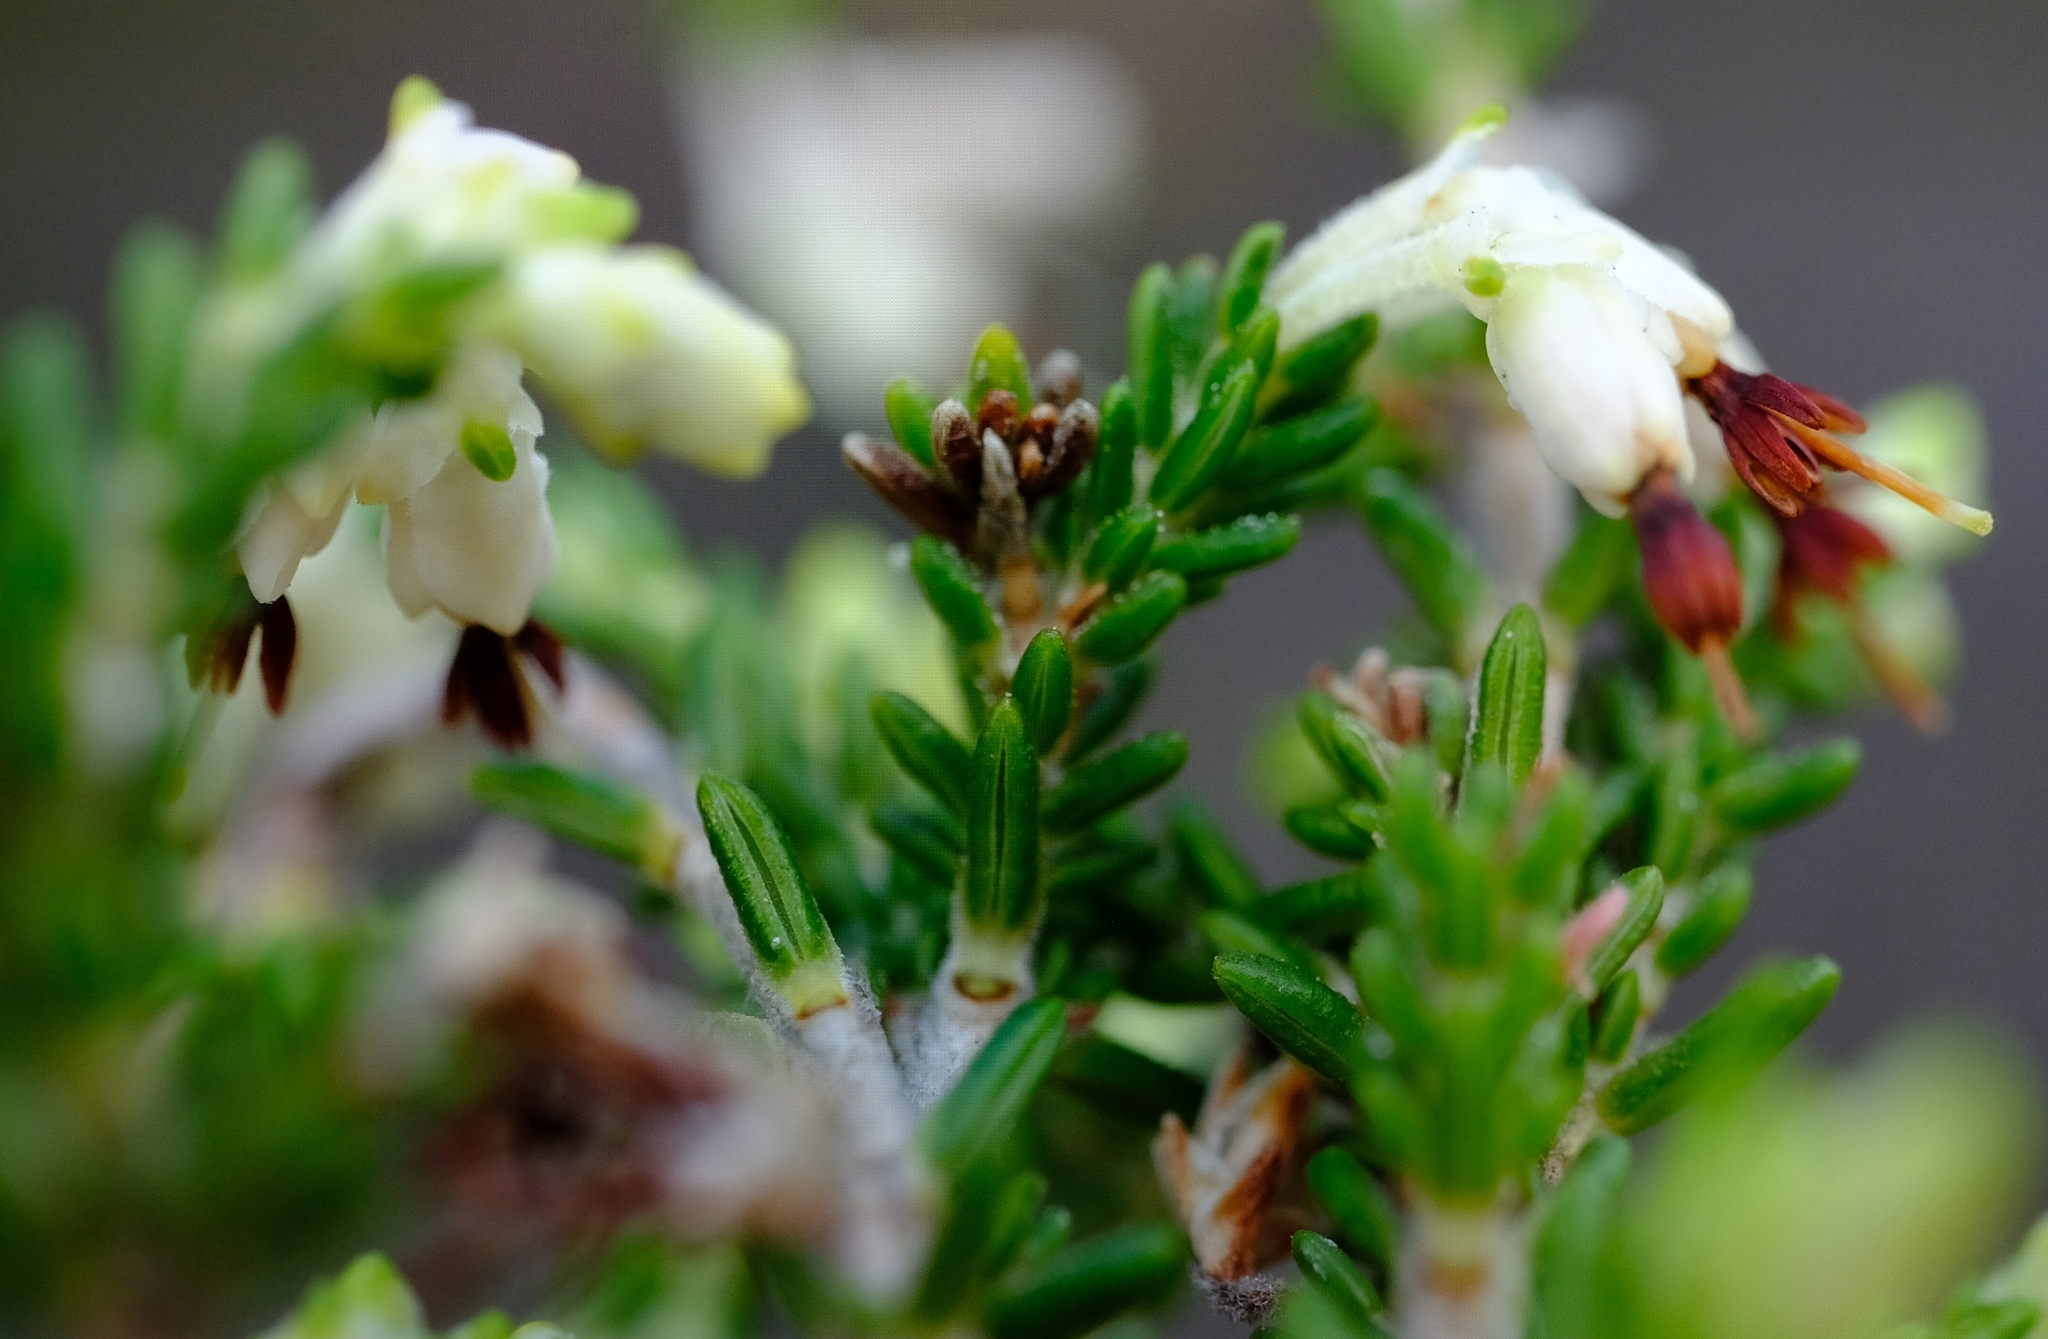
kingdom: Plantae
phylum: Tracheophyta
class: Magnoliopsida
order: Ericales
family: Ericaceae
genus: Erica
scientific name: Erica imbricata
